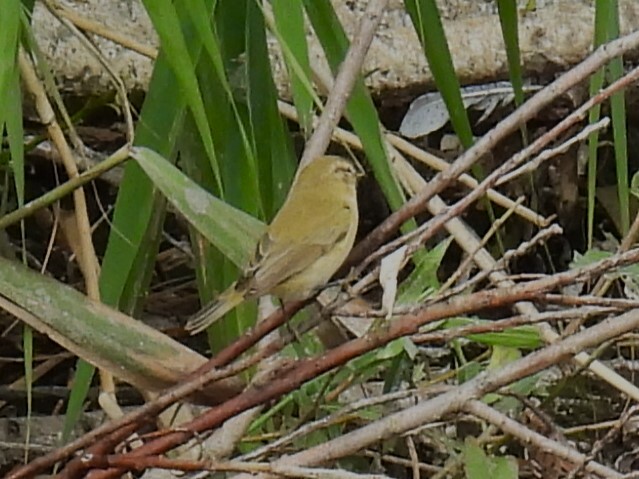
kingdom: Animalia
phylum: Chordata
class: Aves
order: Passeriformes
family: Phylloscopidae
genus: Phylloscopus
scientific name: Phylloscopus collybita
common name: Common chiffchaff
